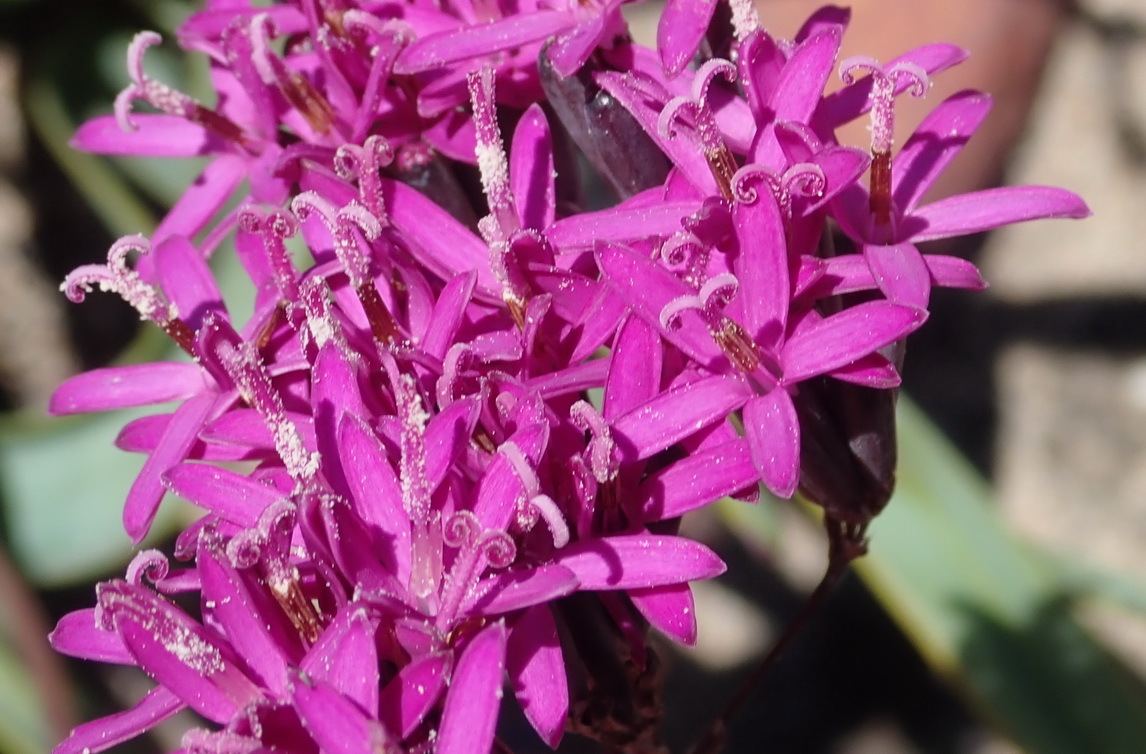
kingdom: Plantae
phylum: Tracheophyta
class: Magnoliopsida
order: Asterales
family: Asteraceae
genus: Corymbium
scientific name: Corymbium glabrum
